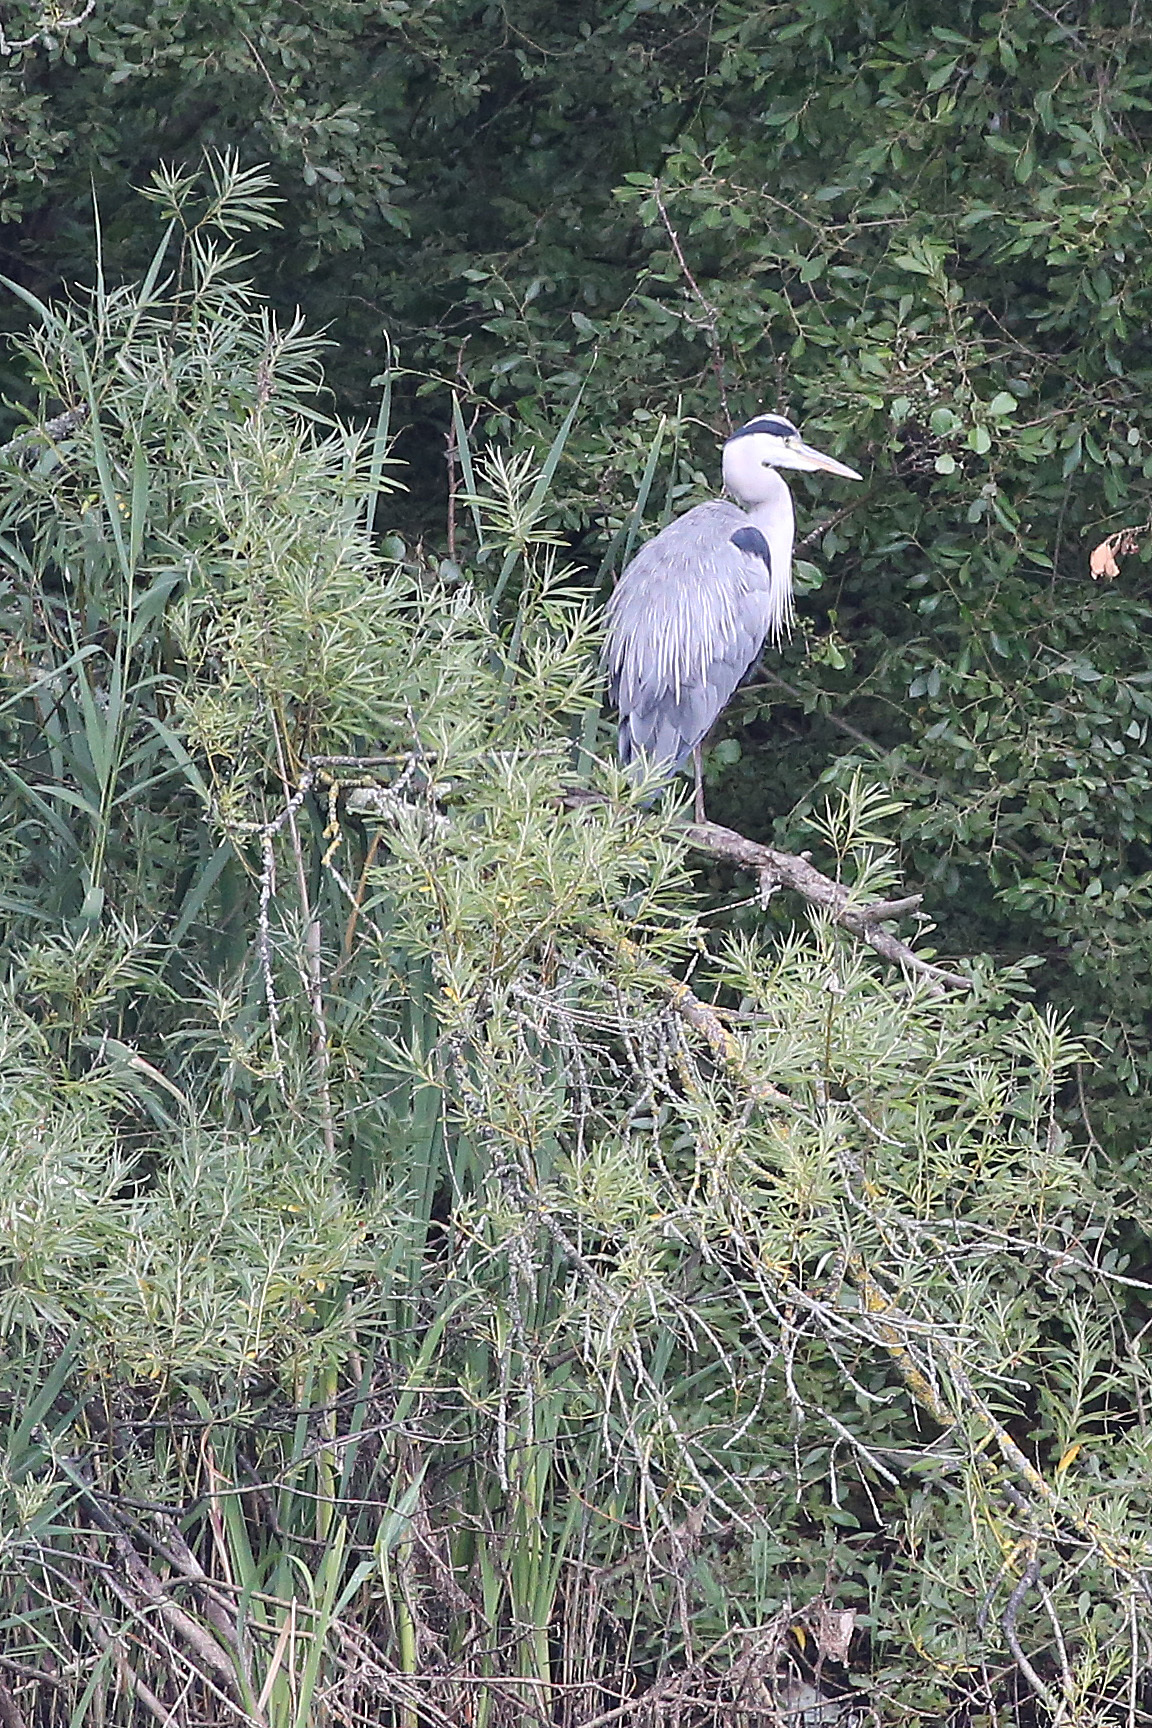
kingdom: Animalia
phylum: Chordata
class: Aves
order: Pelecaniformes
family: Ardeidae
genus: Ardea
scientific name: Ardea cinerea
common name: Grey heron
